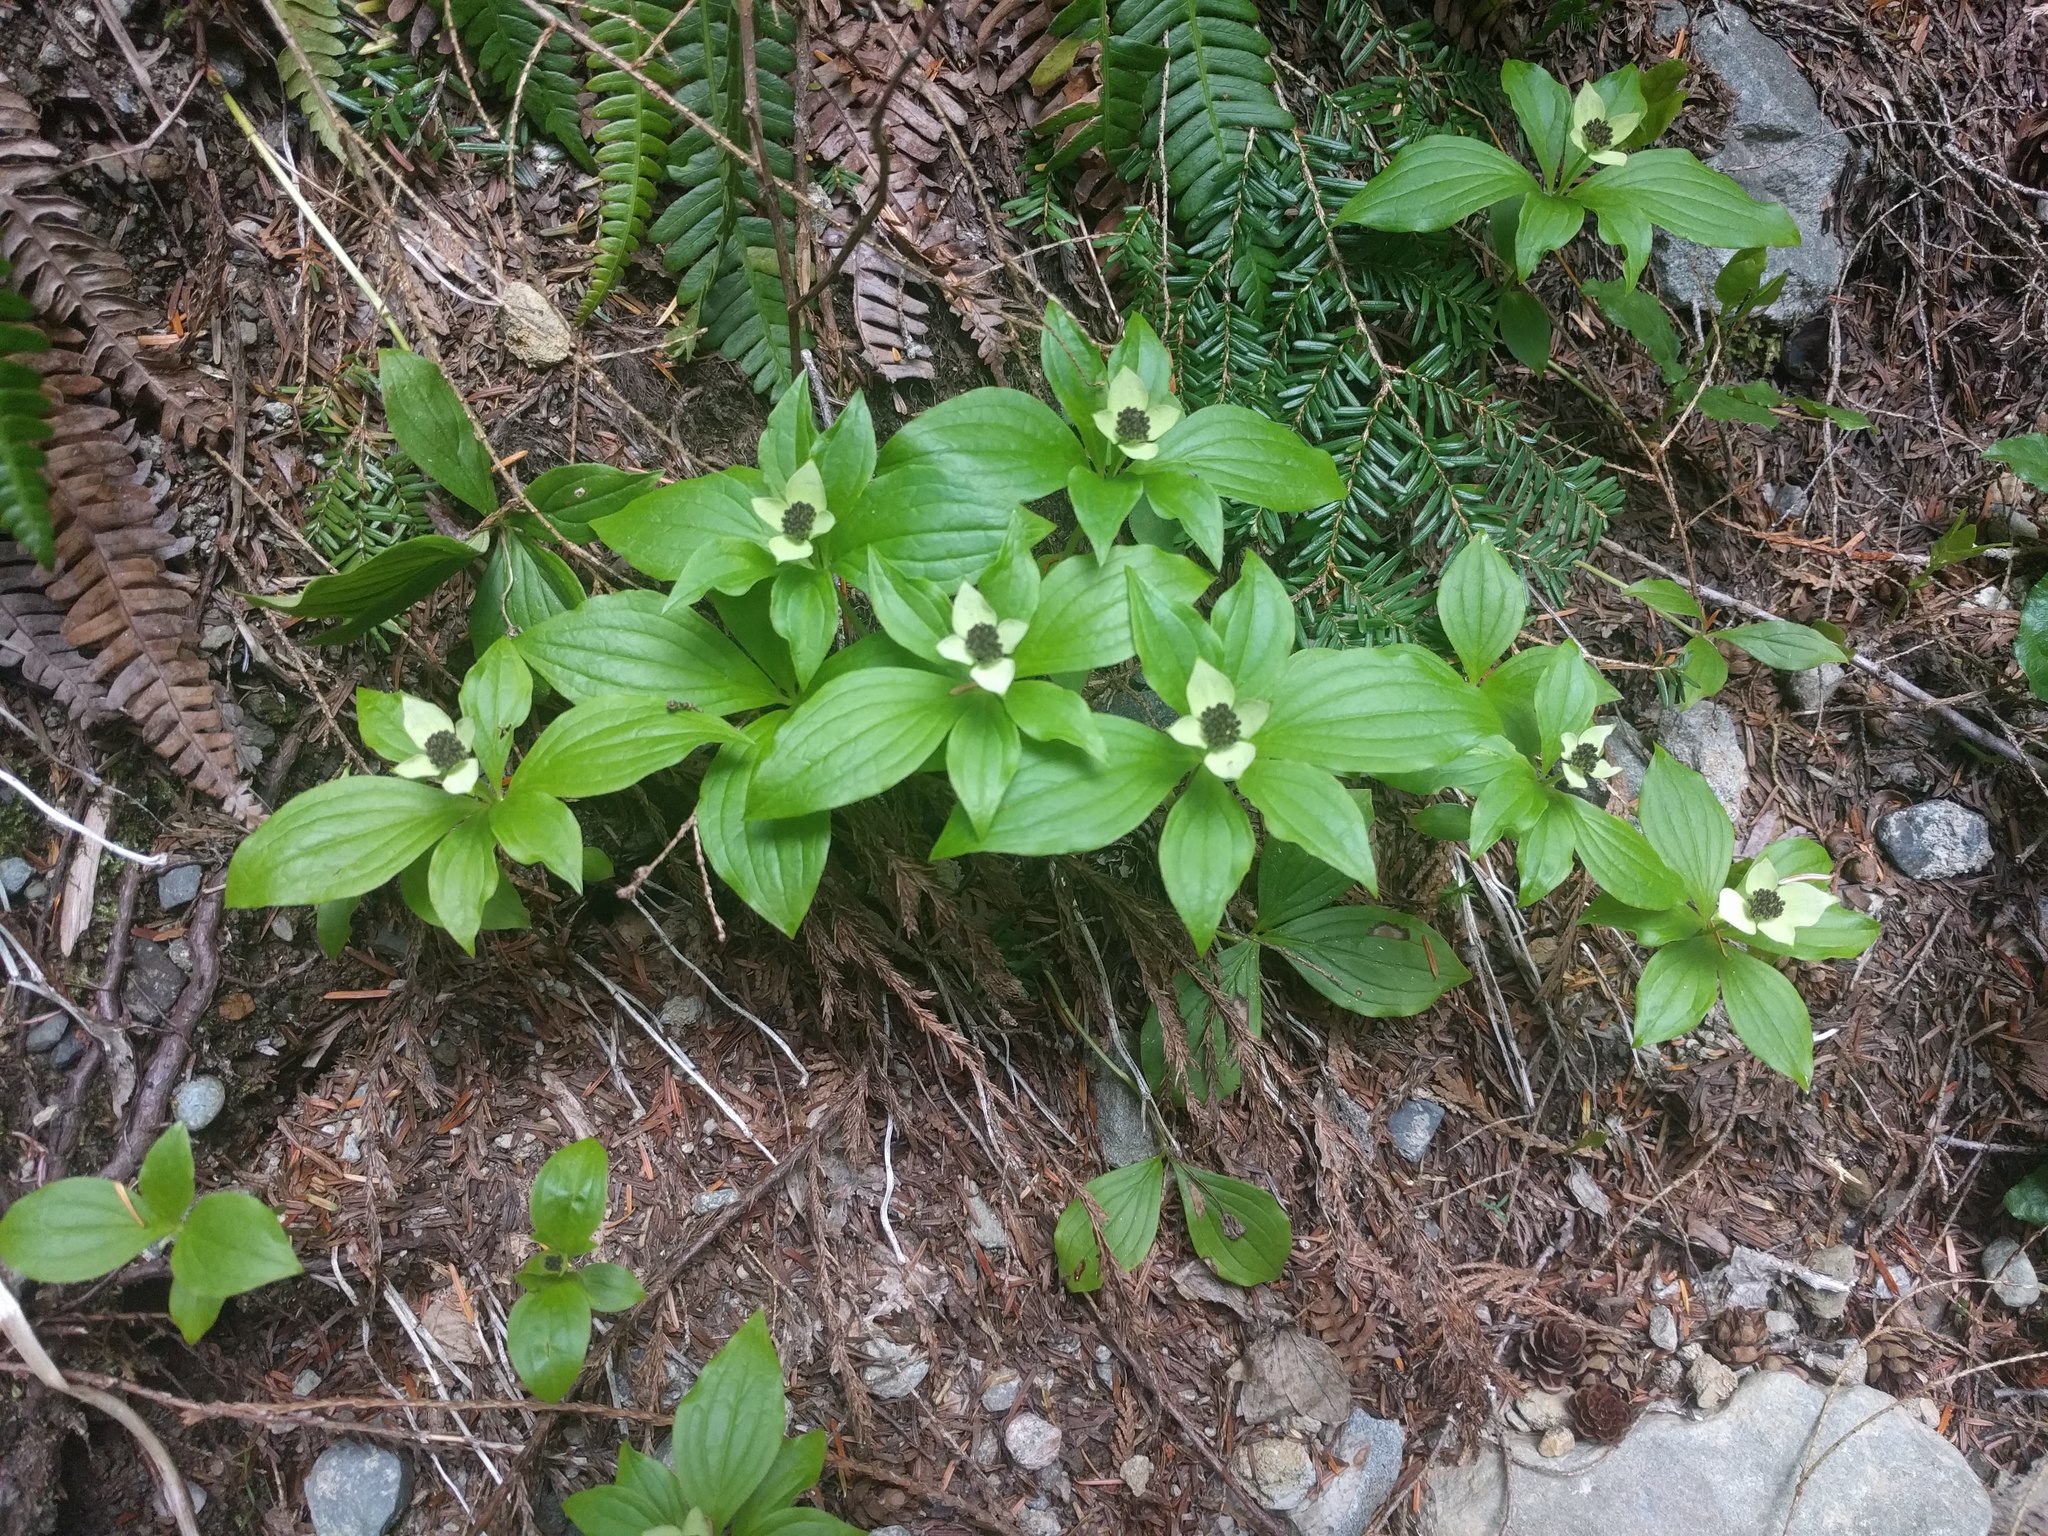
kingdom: Plantae
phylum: Tracheophyta
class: Magnoliopsida
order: Cornales
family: Cornaceae
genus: Cornus
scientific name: Cornus unalaschkensis
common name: Alaska bunchberry
